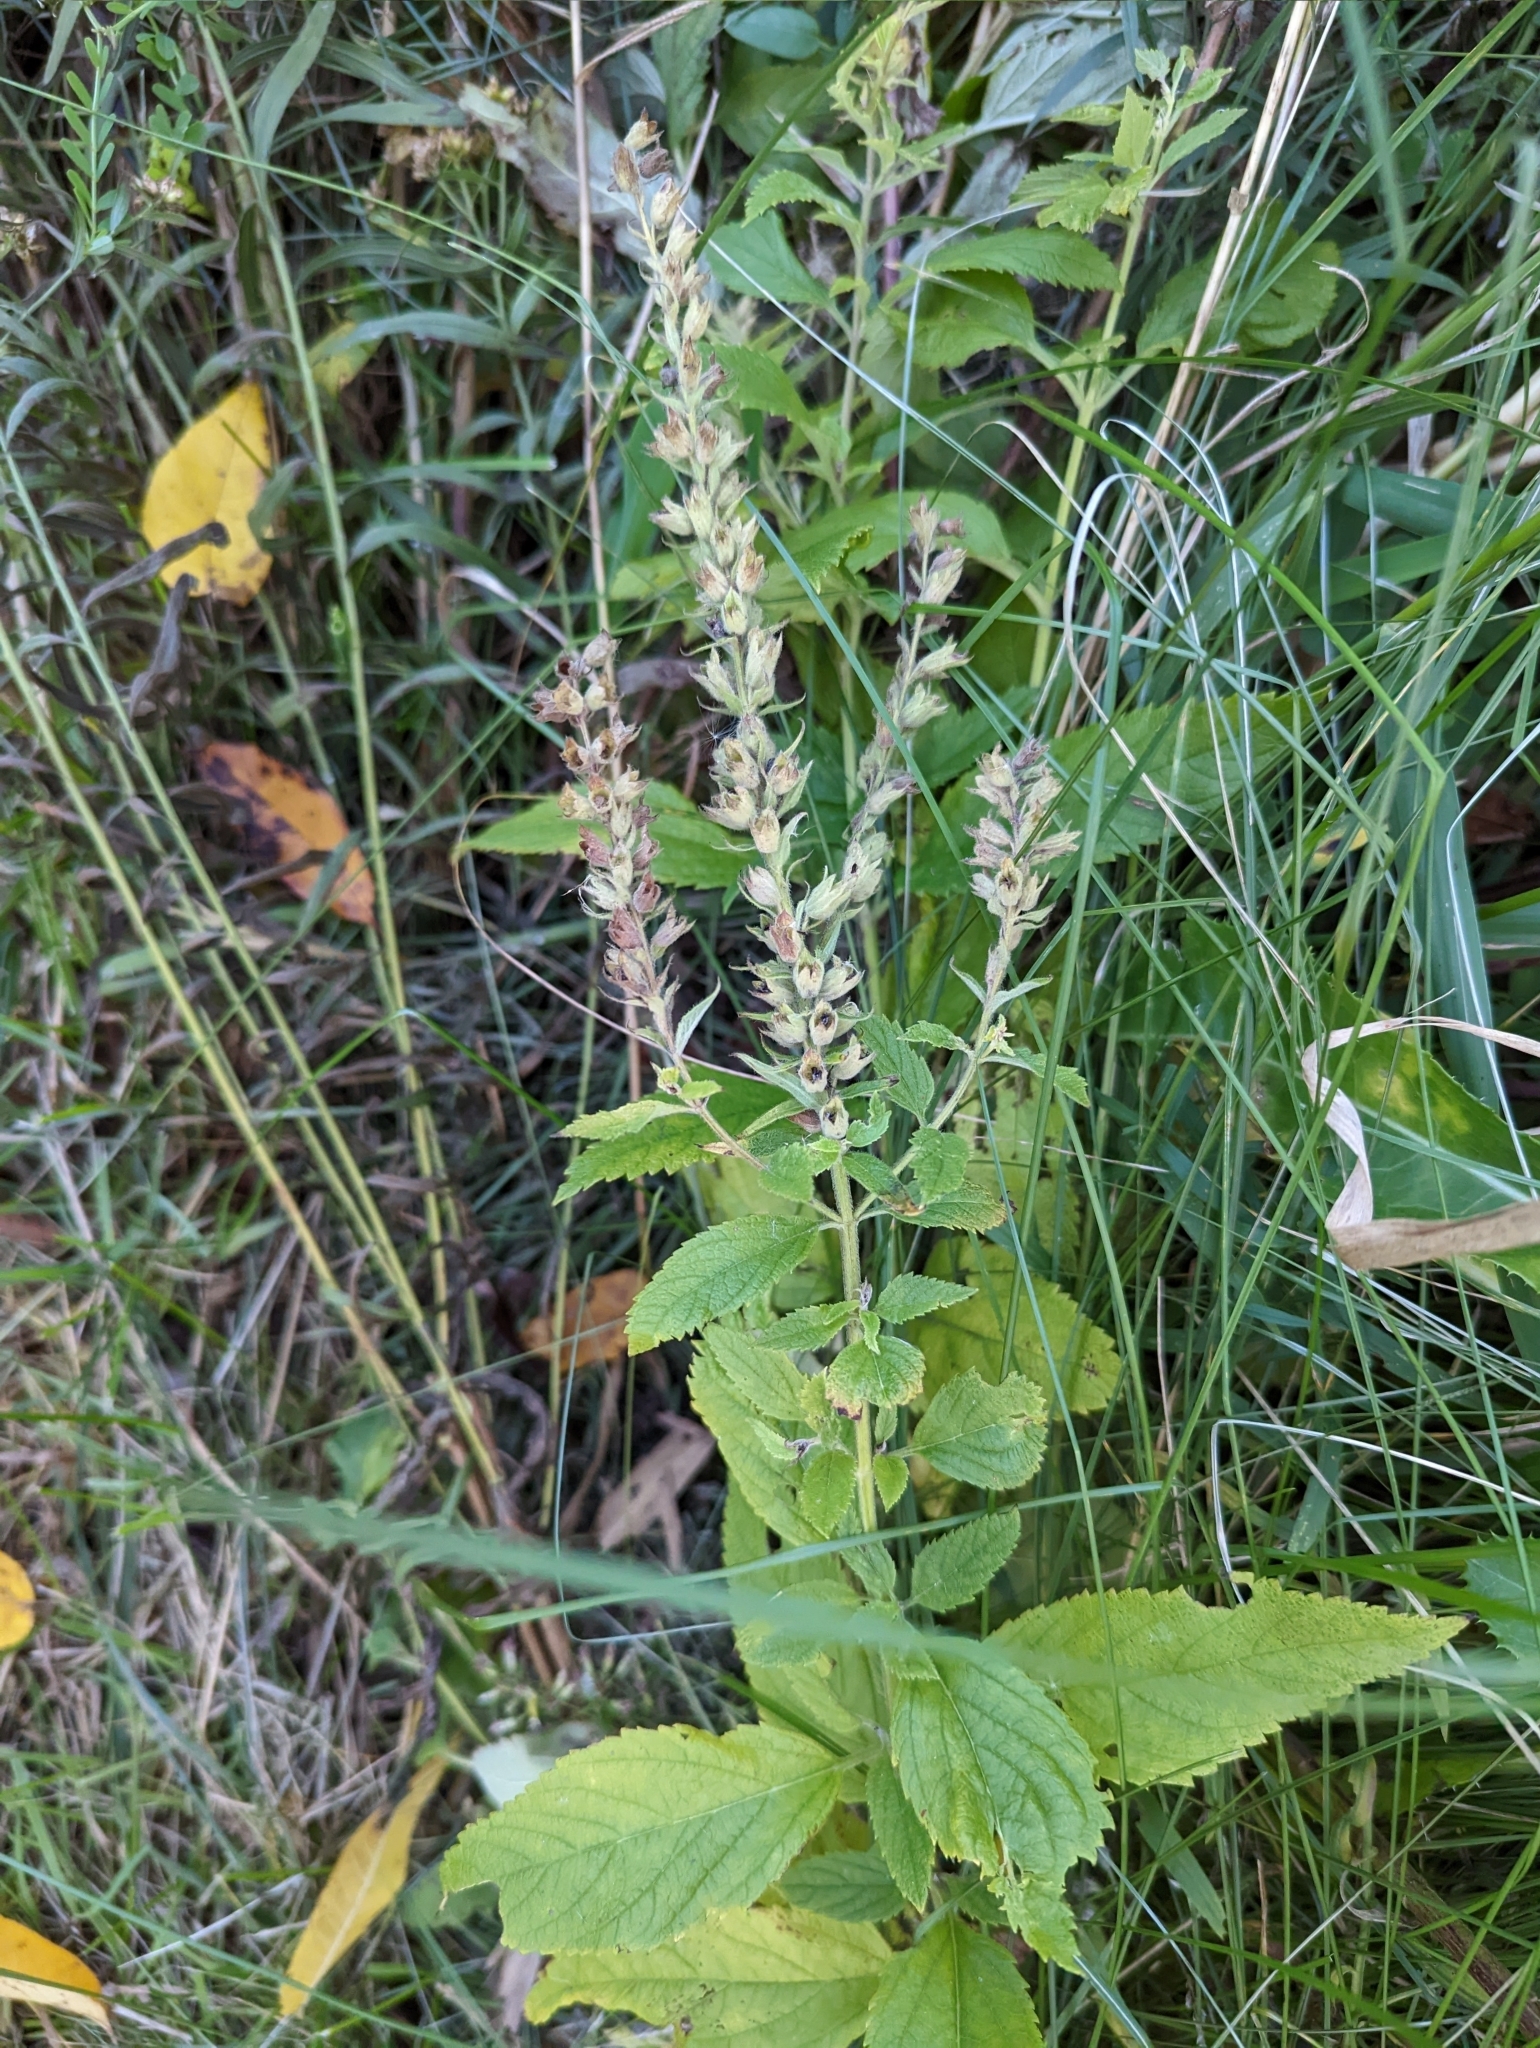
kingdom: Plantae
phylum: Tracheophyta
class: Magnoliopsida
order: Lamiales
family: Lamiaceae
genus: Teucrium
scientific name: Teucrium canadense
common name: American germander
